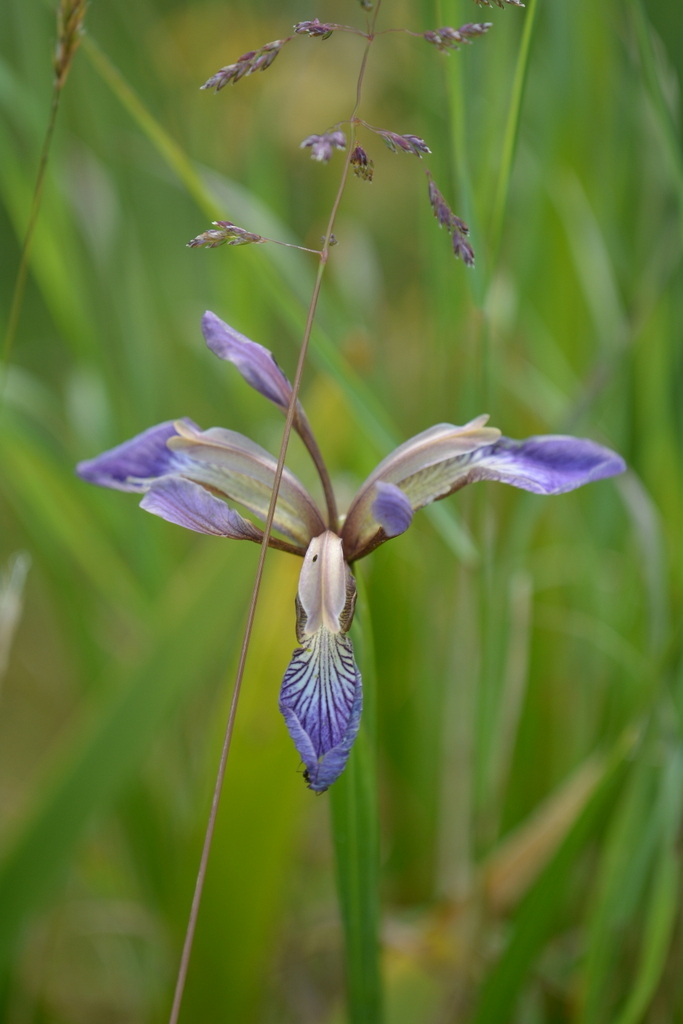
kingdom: Plantae
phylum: Tracheophyta
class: Liliopsida
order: Asparagales
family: Iridaceae
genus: Iris
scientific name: Iris foetidissima
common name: Stinking iris
